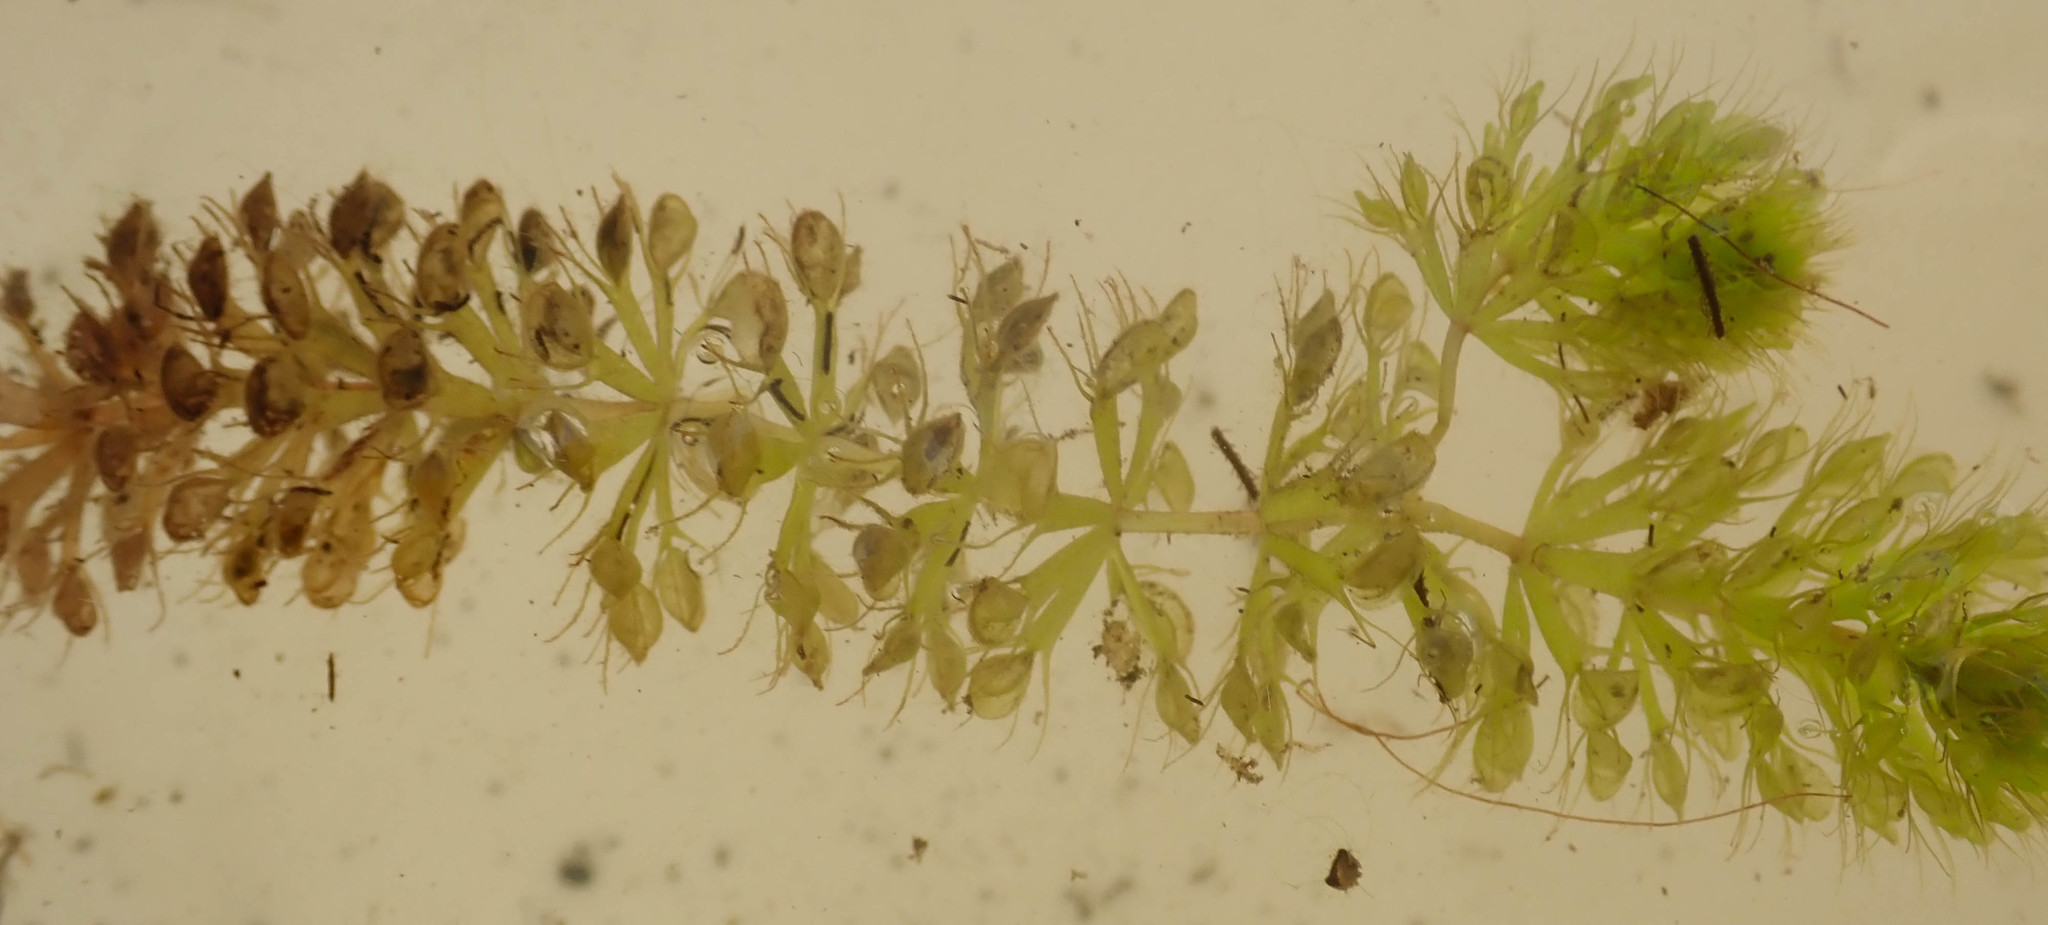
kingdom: Plantae
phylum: Tracheophyta
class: Magnoliopsida
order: Caryophyllales
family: Droseraceae
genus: Aldrovanda
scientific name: Aldrovanda vesiculosa
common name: Waterwheel plant
